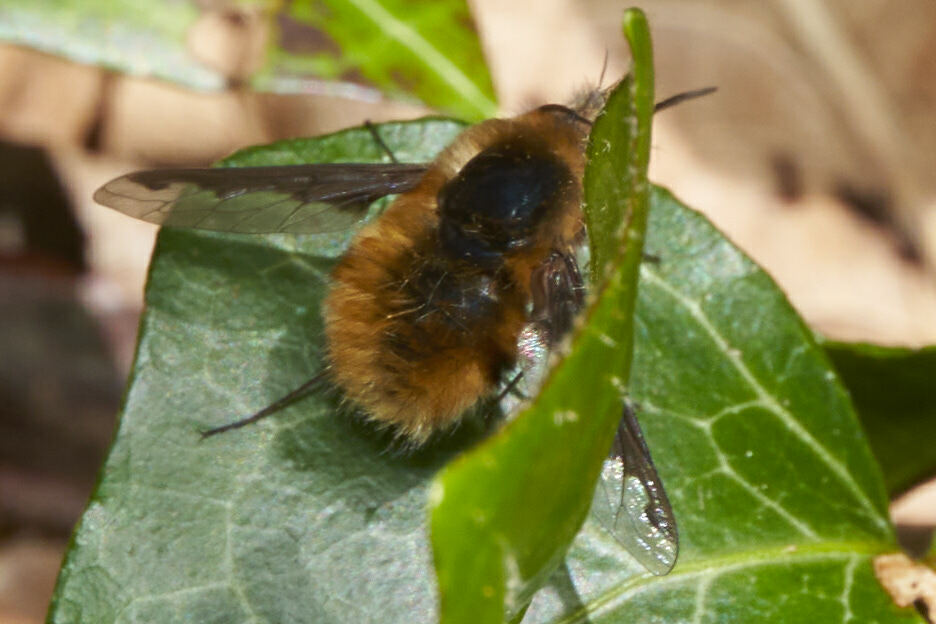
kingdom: Animalia
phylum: Arthropoda
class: Insecta
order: Diptera
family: Bombyliidae
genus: Bombylius
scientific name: Bombylius major
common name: Bee fly
